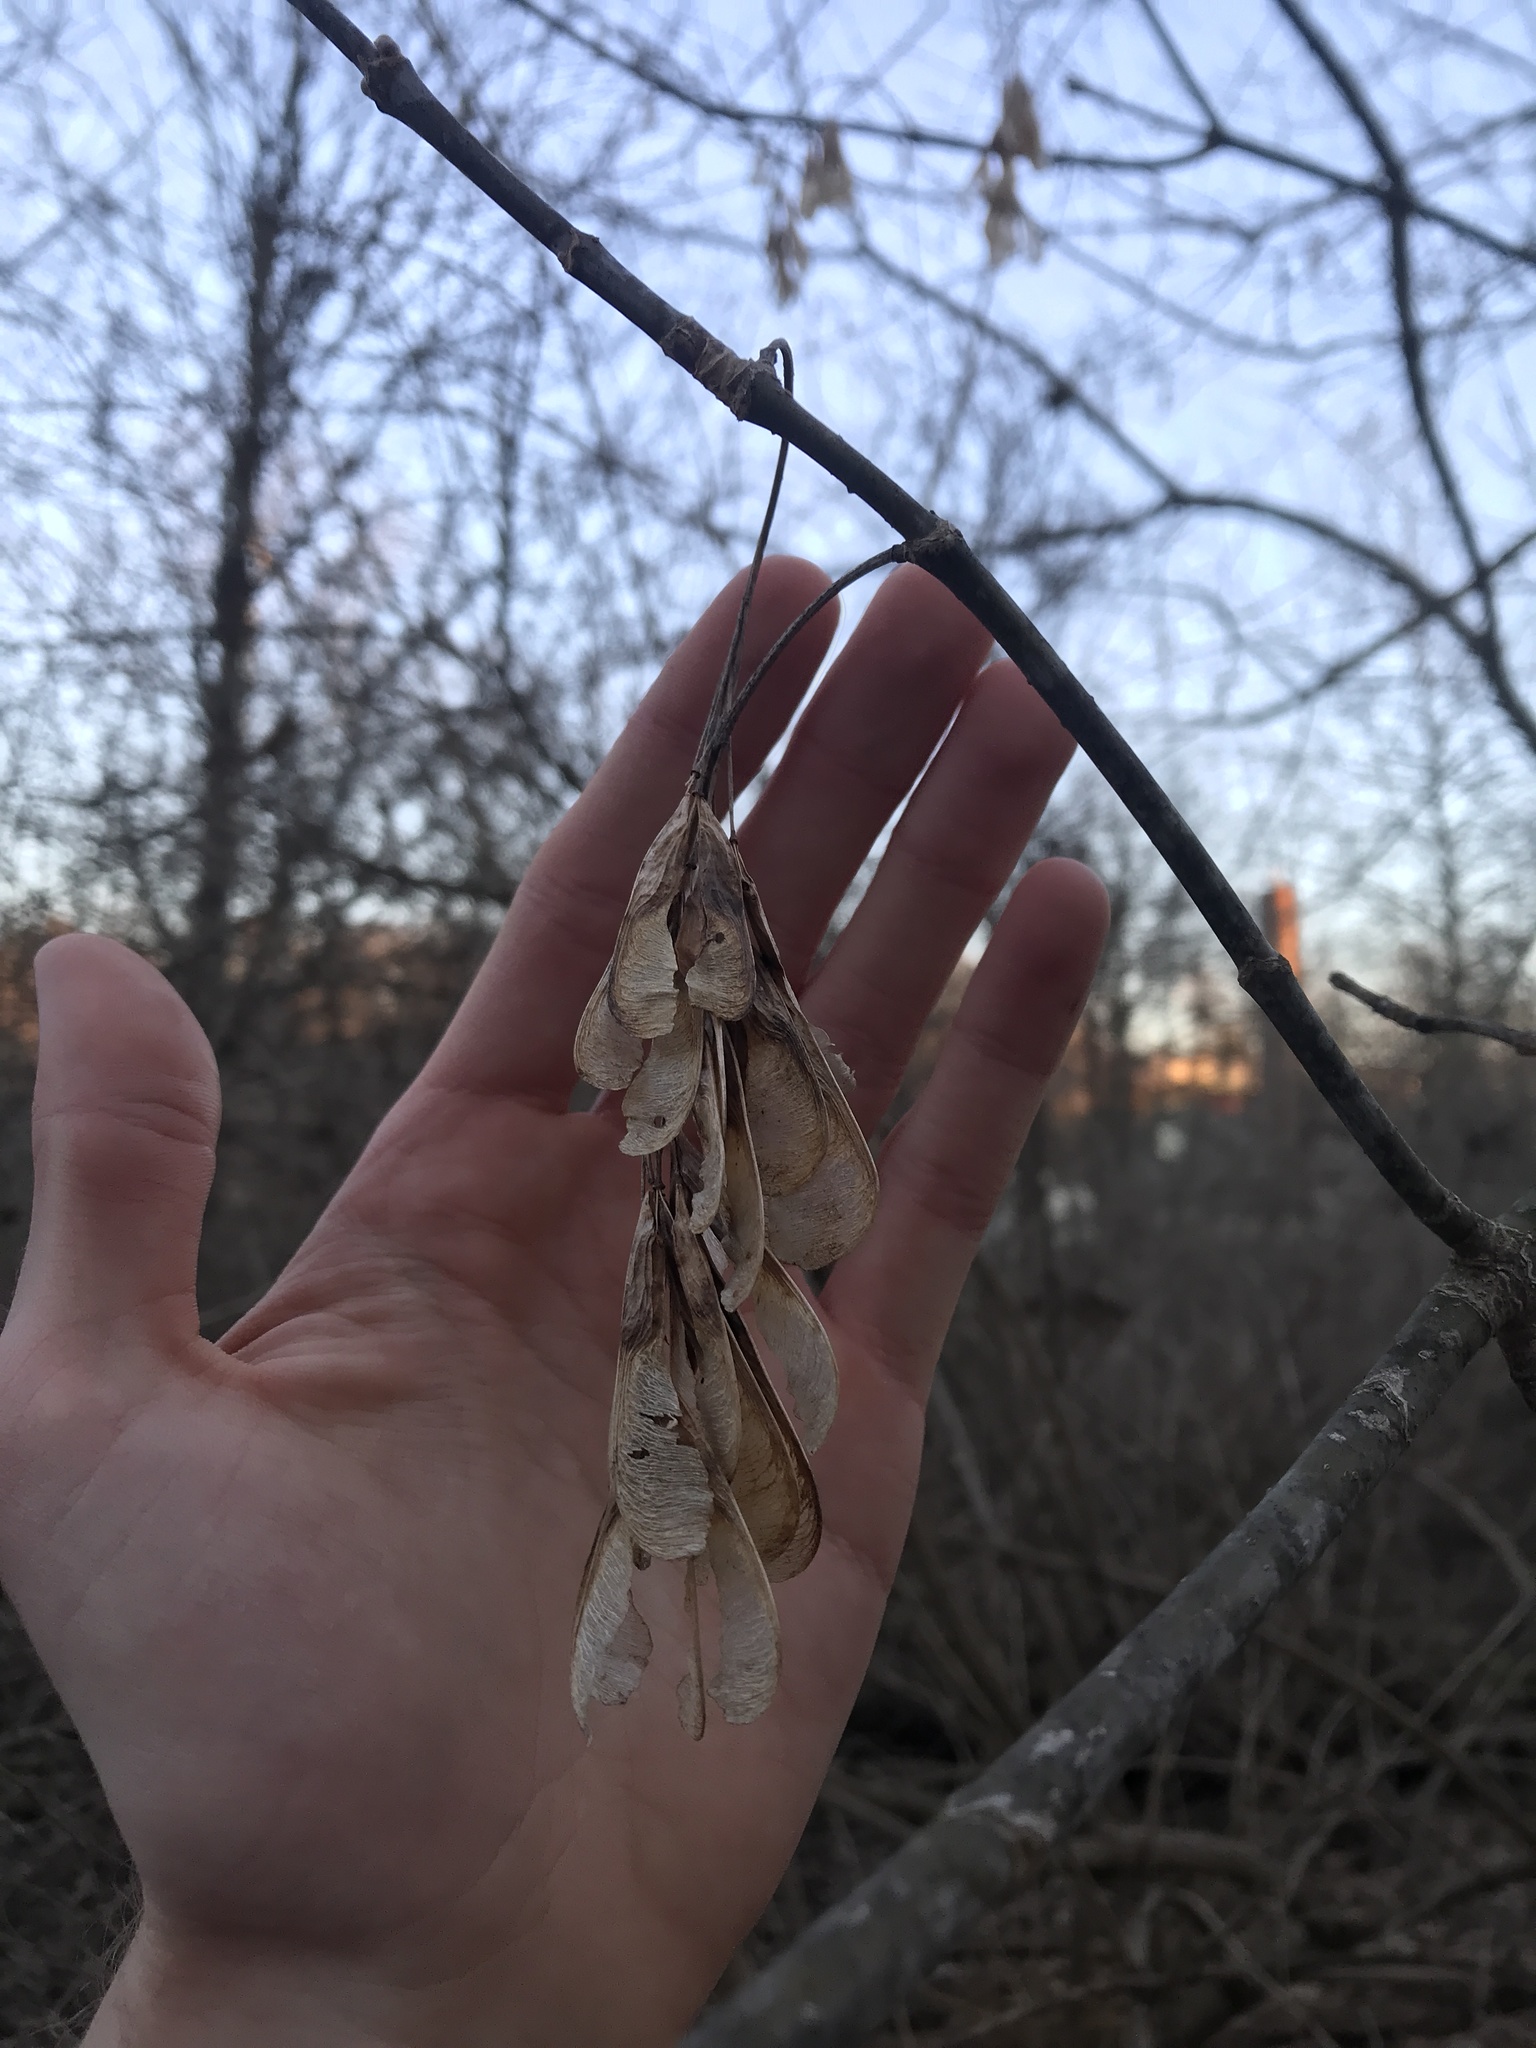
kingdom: Plantae
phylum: Tracheophyta
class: Magnoliopsida
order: Sapindales
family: Sapindaceae
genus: Acer
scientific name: Acer negundo
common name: Ashleaf maple
